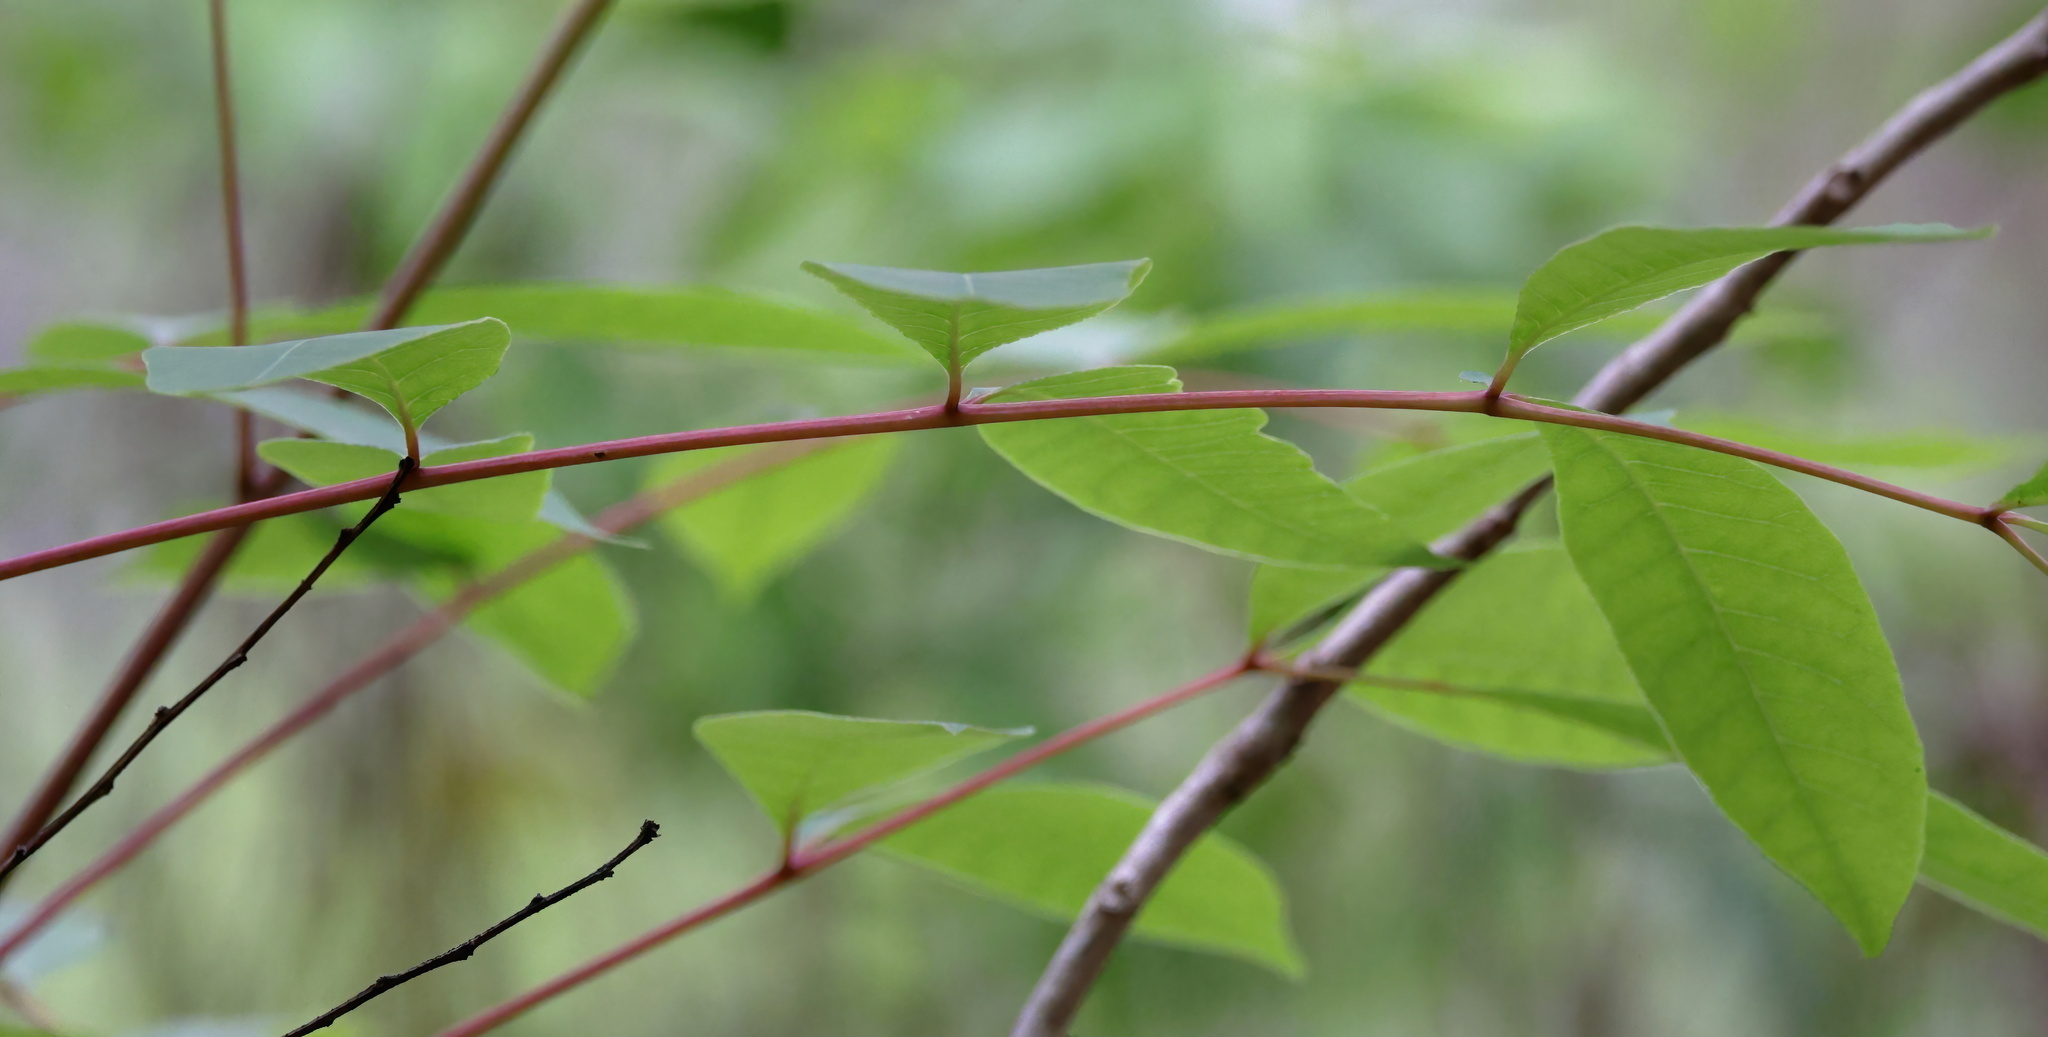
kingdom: Plantae
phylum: Tracheophyta
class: Magnoliopsida
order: Sapindales
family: Anacardiaceae
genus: Toxicodendron
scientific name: Toxicodendron vernix
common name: Poison sumac
